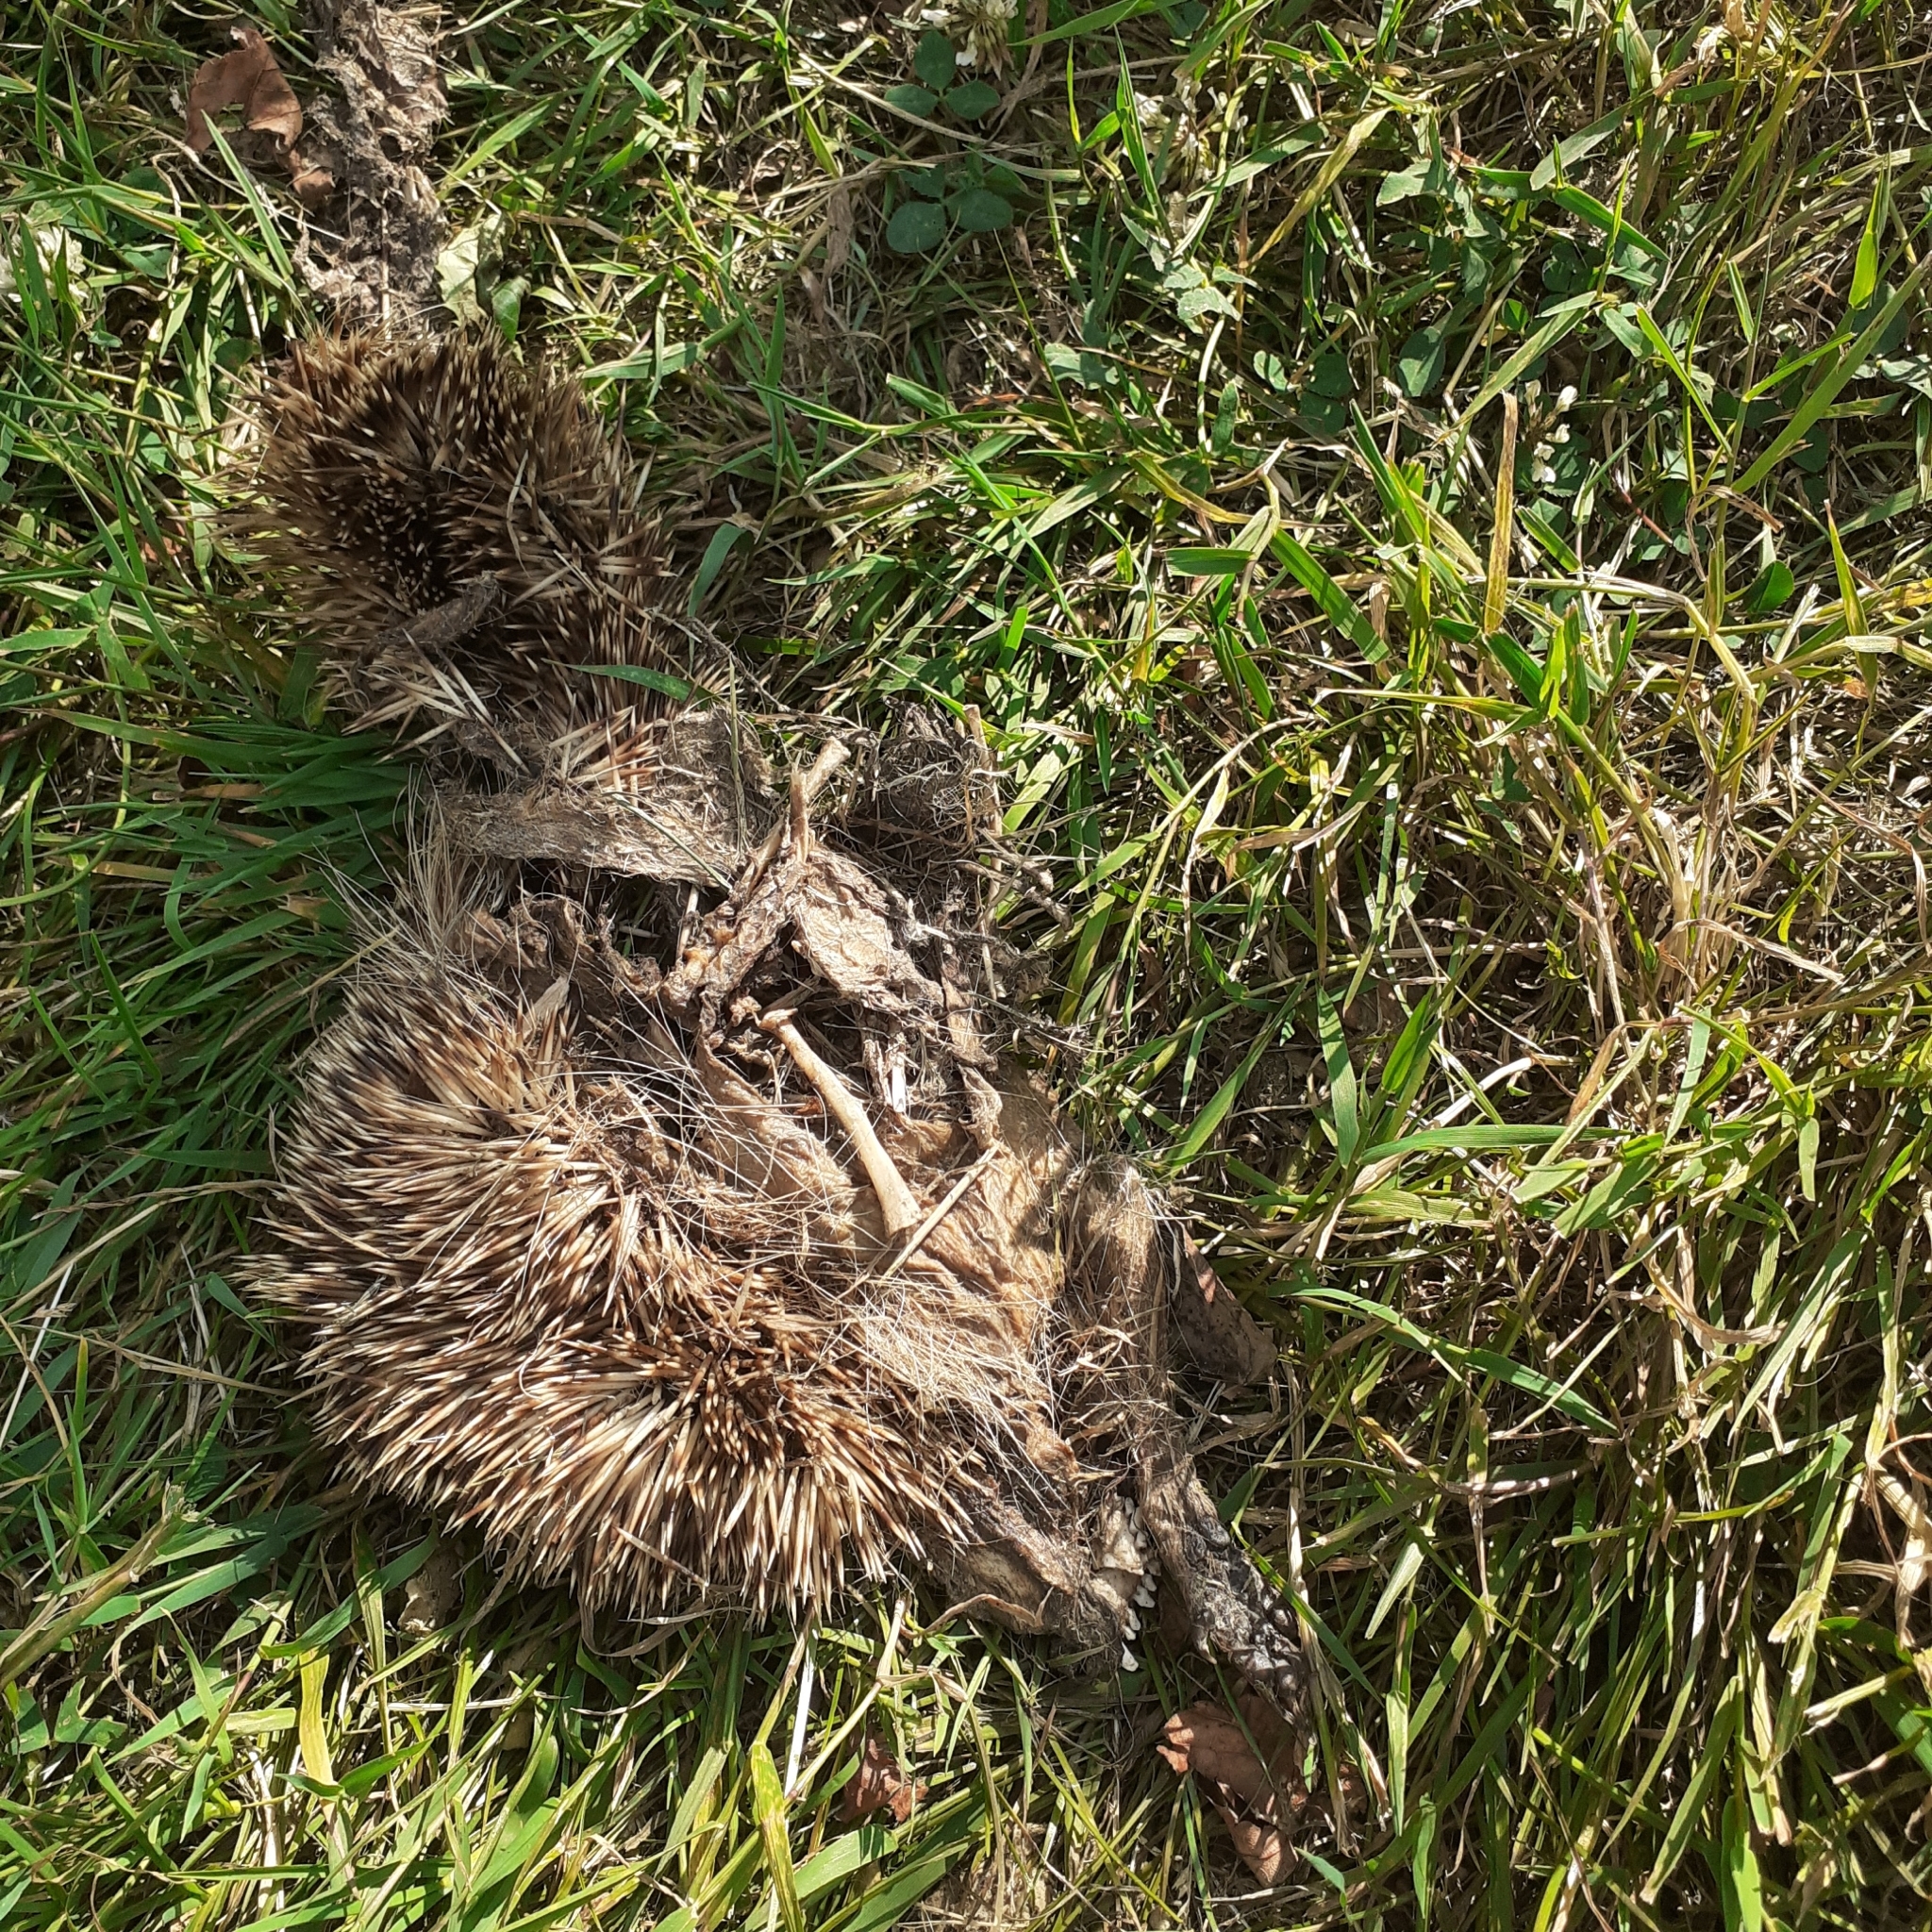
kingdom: Animalia
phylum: Chordata
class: Mammalia
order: Erinaceomorpha
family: Erinaceidae
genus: Erinaceus
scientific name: Erinaceus europaeus
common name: West european hedgehog
